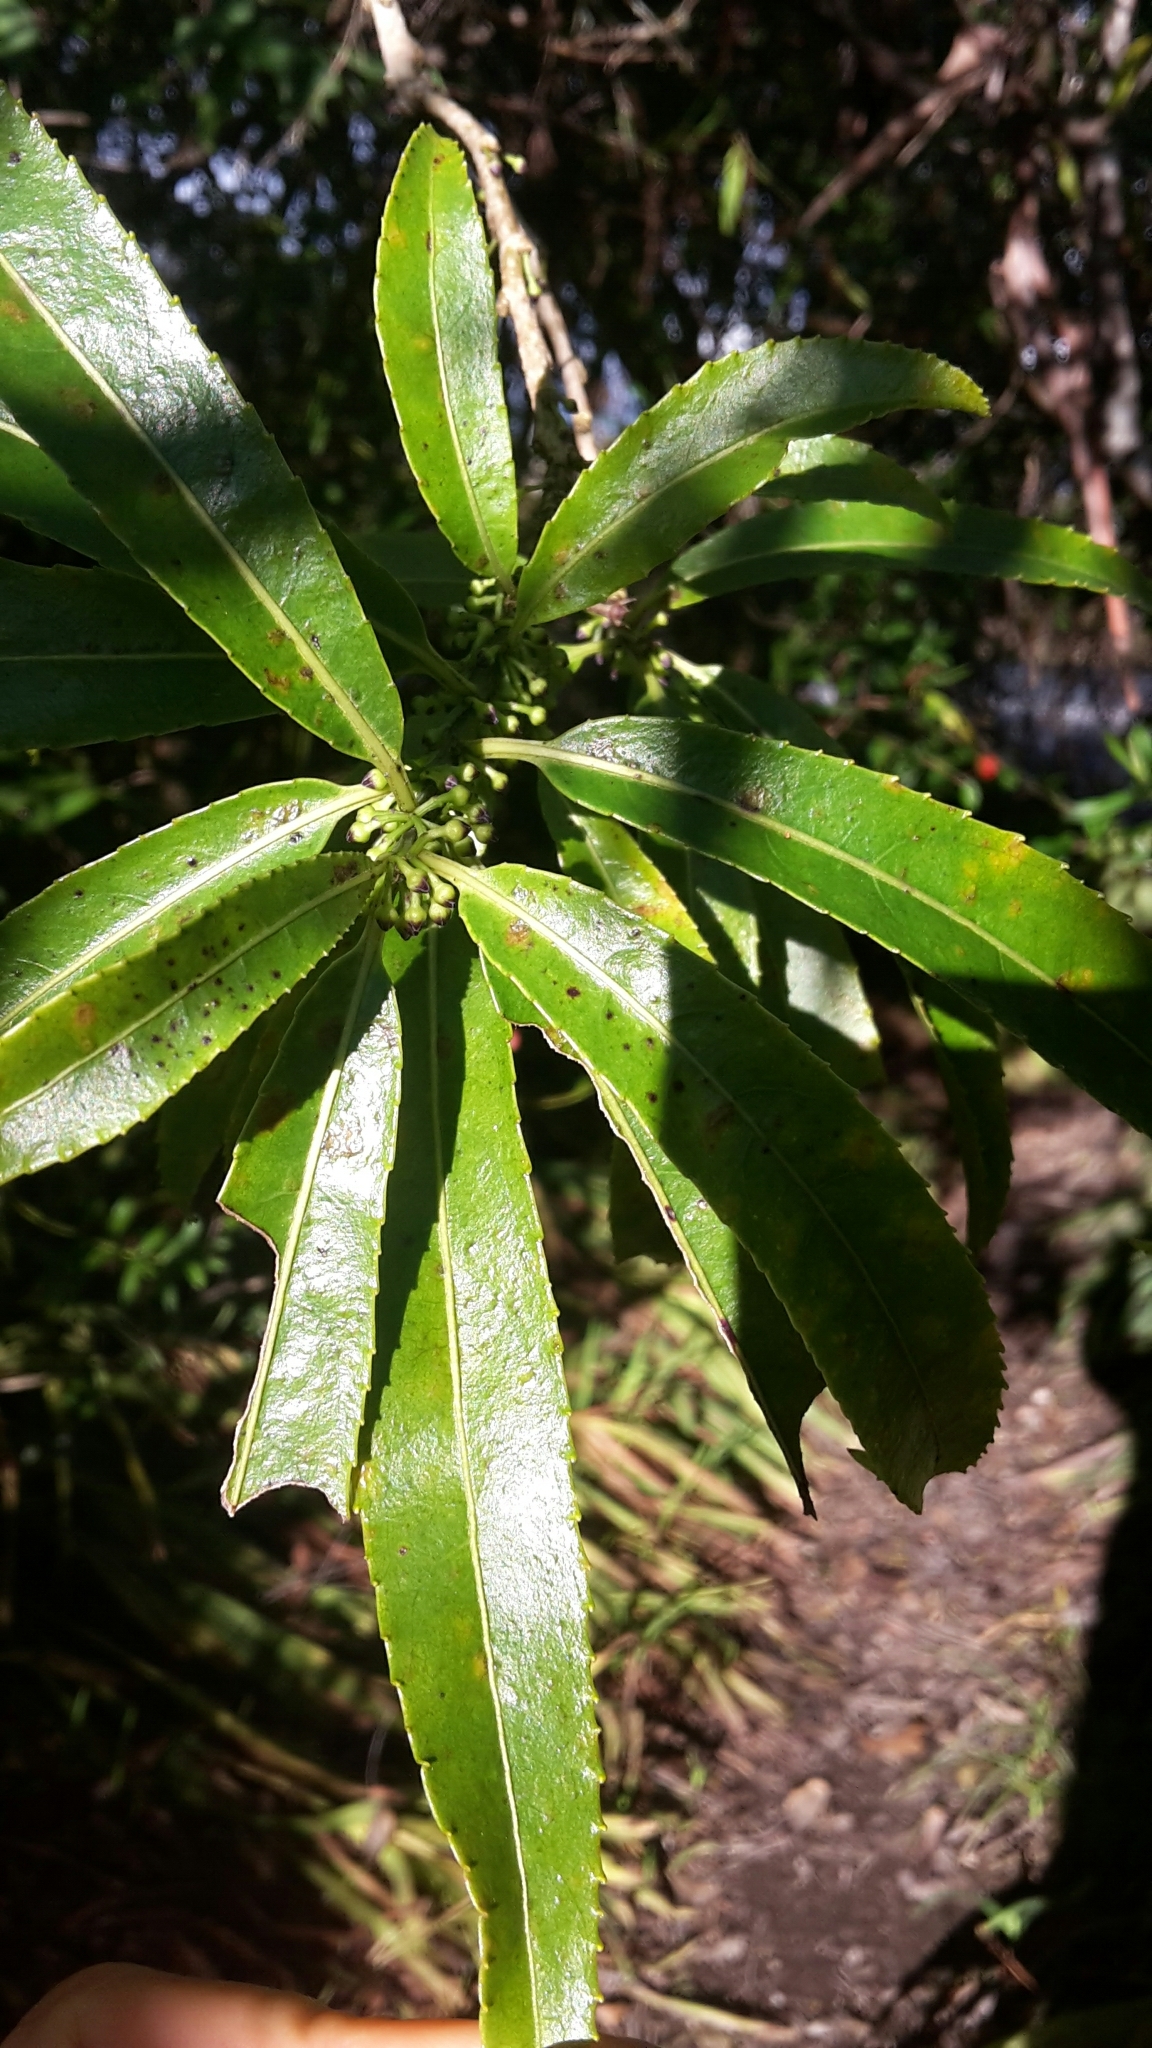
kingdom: Plantae
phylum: Tracheophyta
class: Magnoliopsida
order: Malpighiales
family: Violaceae
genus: Melicytus
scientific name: Melicytus lanceolatus
